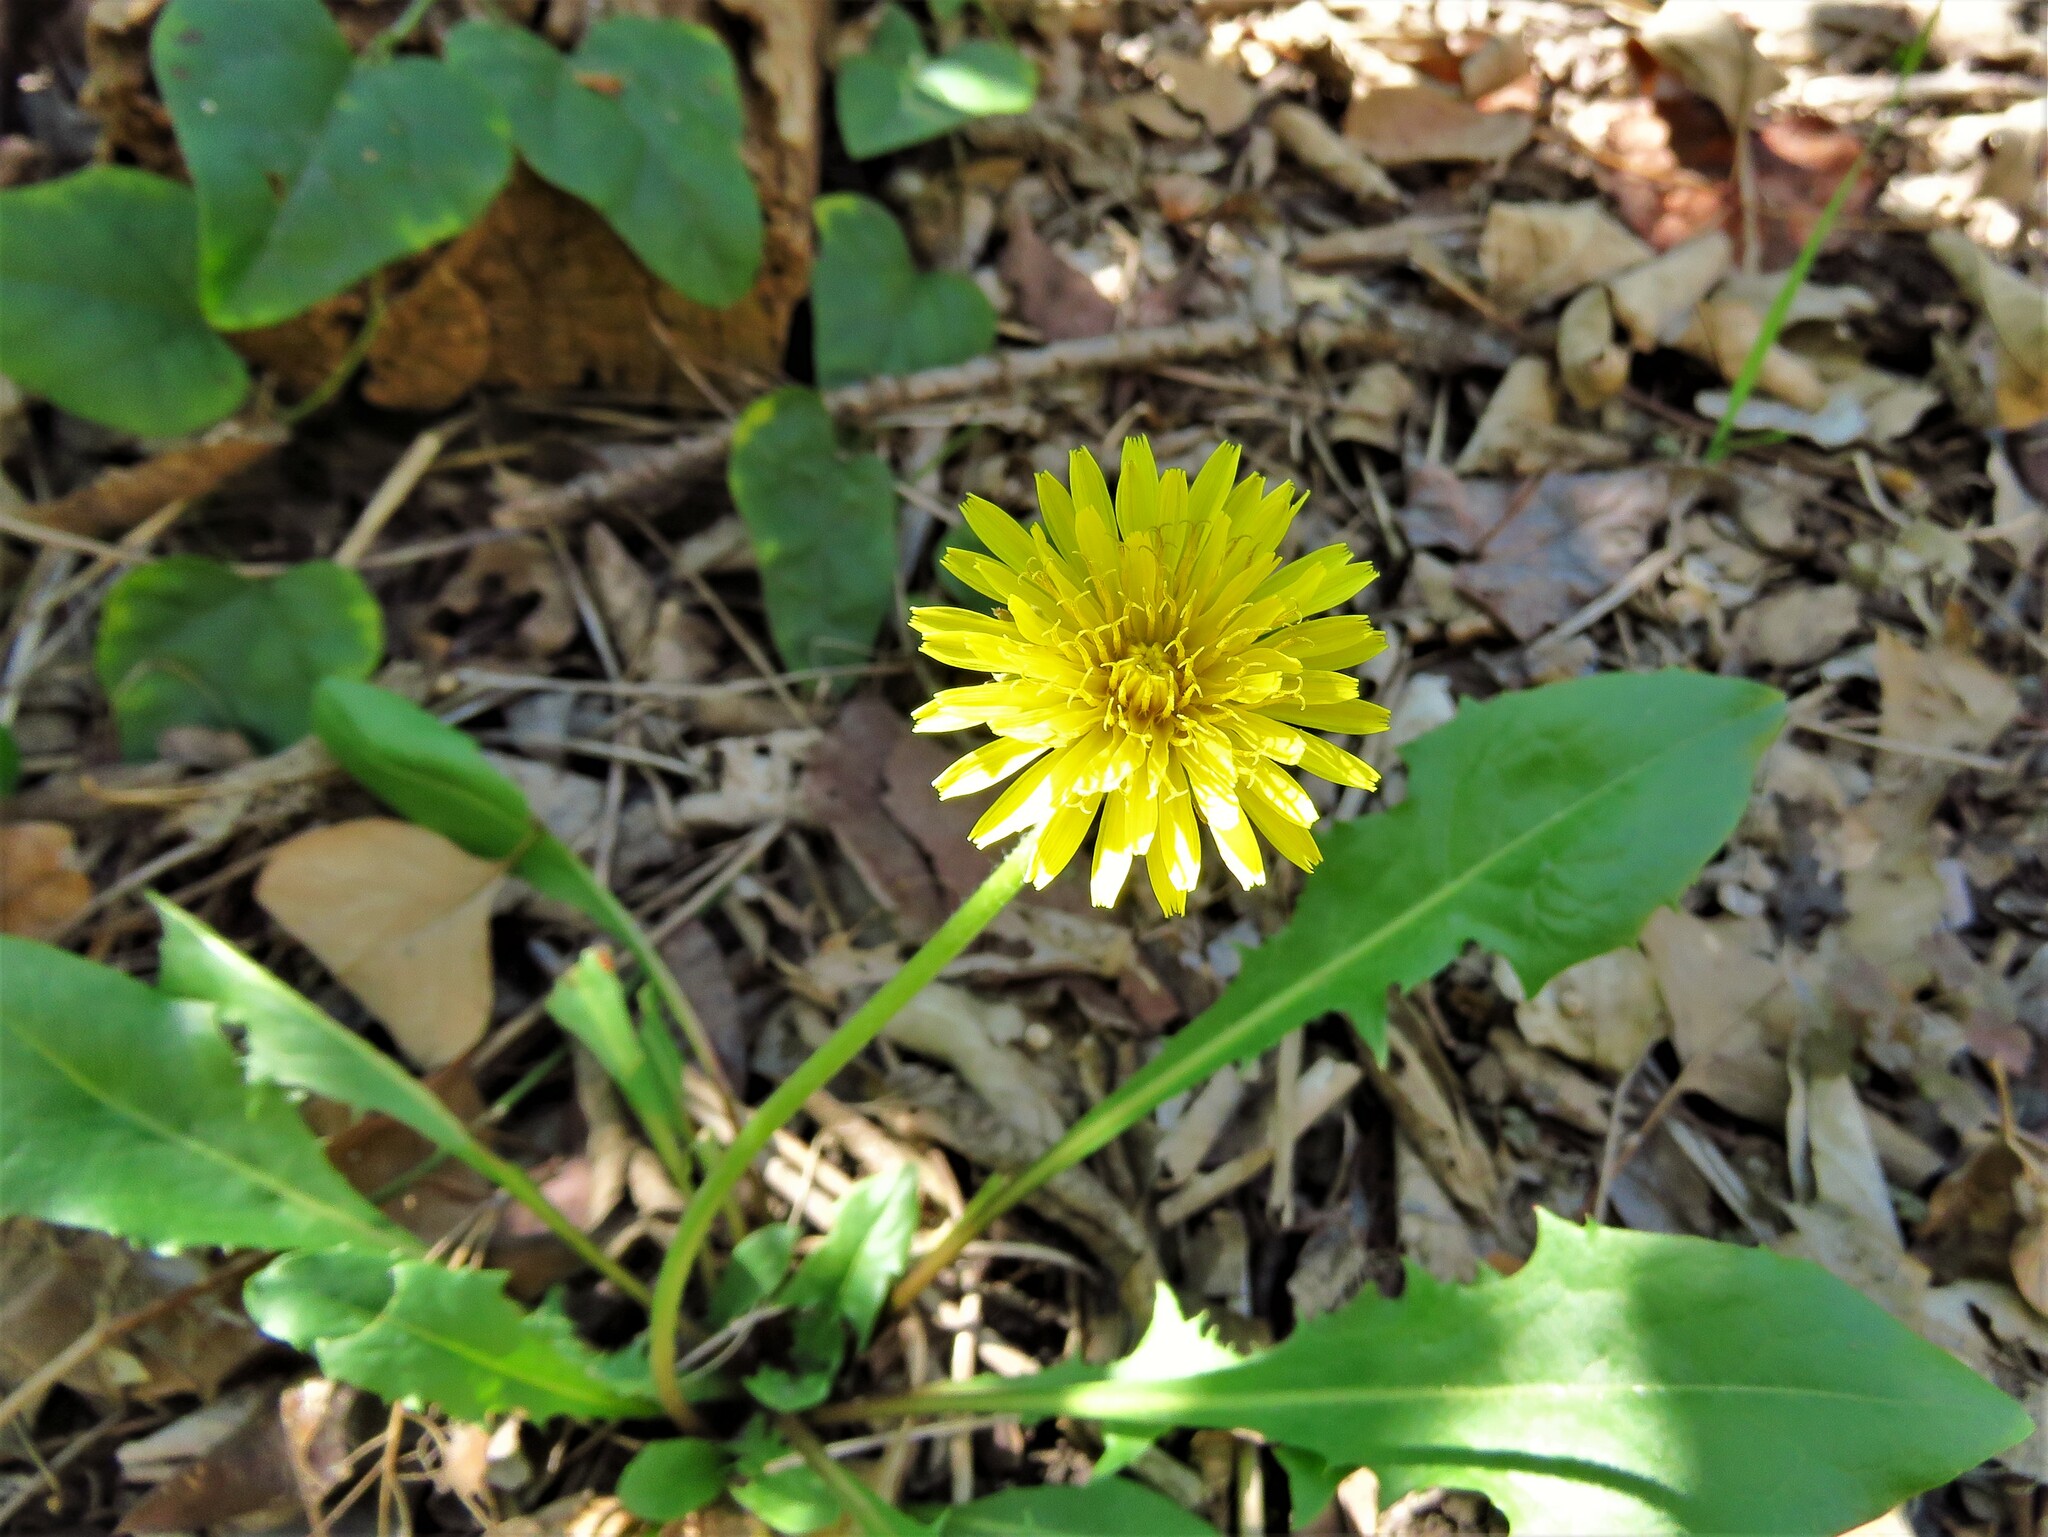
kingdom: Plantae
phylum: Tracheophyta
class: Magnoliopsida
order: Asterales
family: Asteraceae
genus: Taraxacum
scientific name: Taraxacum officinale
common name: Common dandelion
